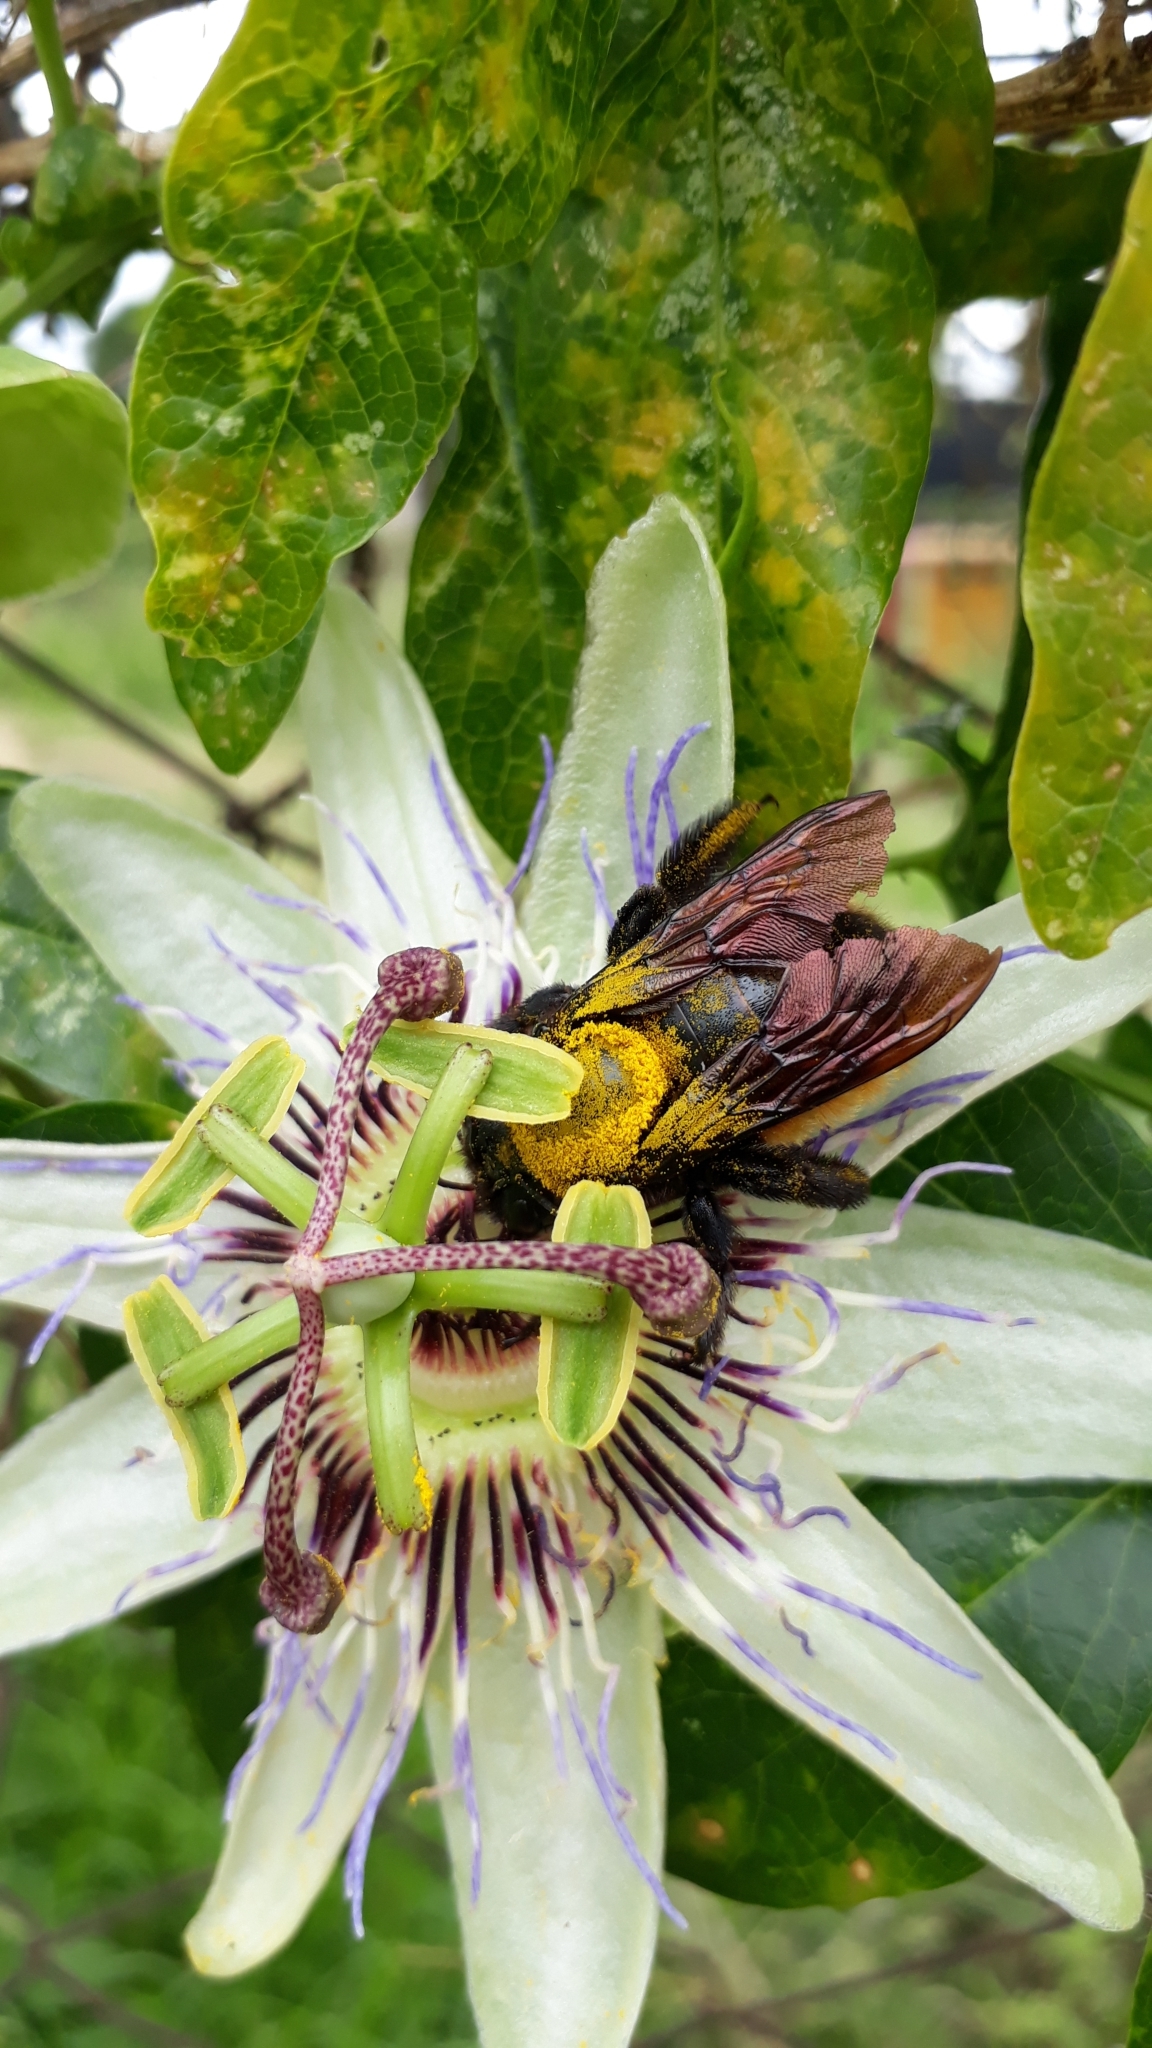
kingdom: Animalia
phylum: Arthropoda
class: Insecta
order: Hymenoptera
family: Apidae
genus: Xylocopa
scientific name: Xylocopa augusti
